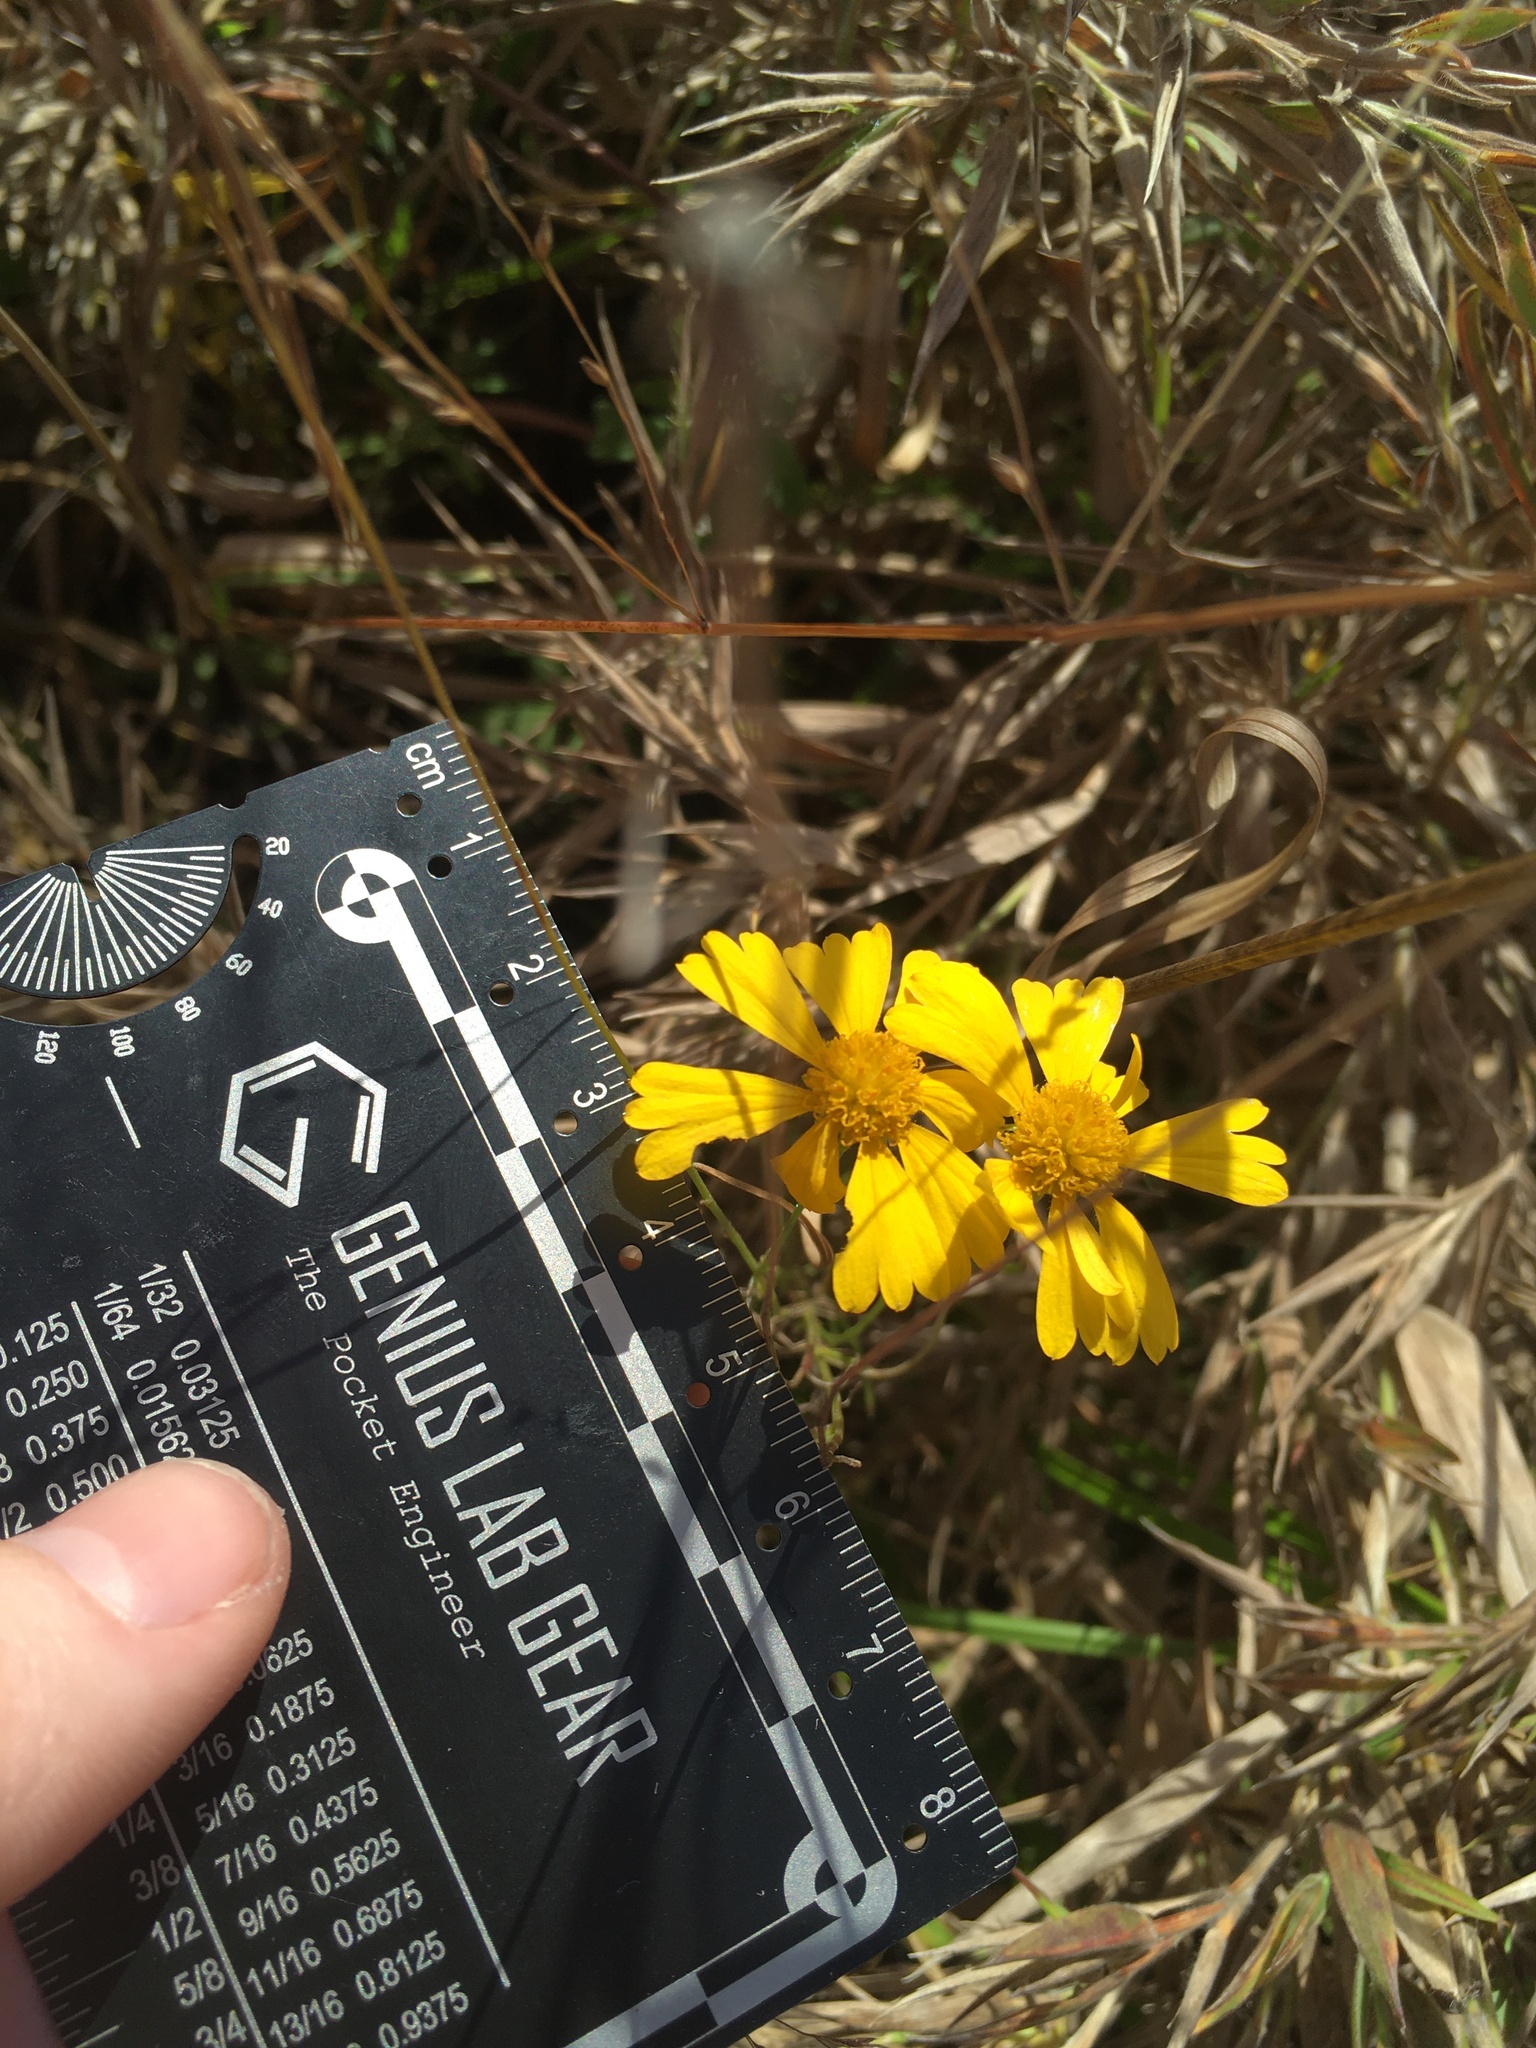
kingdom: Plantae
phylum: Tracheophyta
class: Magnoliopsida
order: Asterales
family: Asteraceae
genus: Helenium
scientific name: Helenium amarum
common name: Bitter sneezeweed
